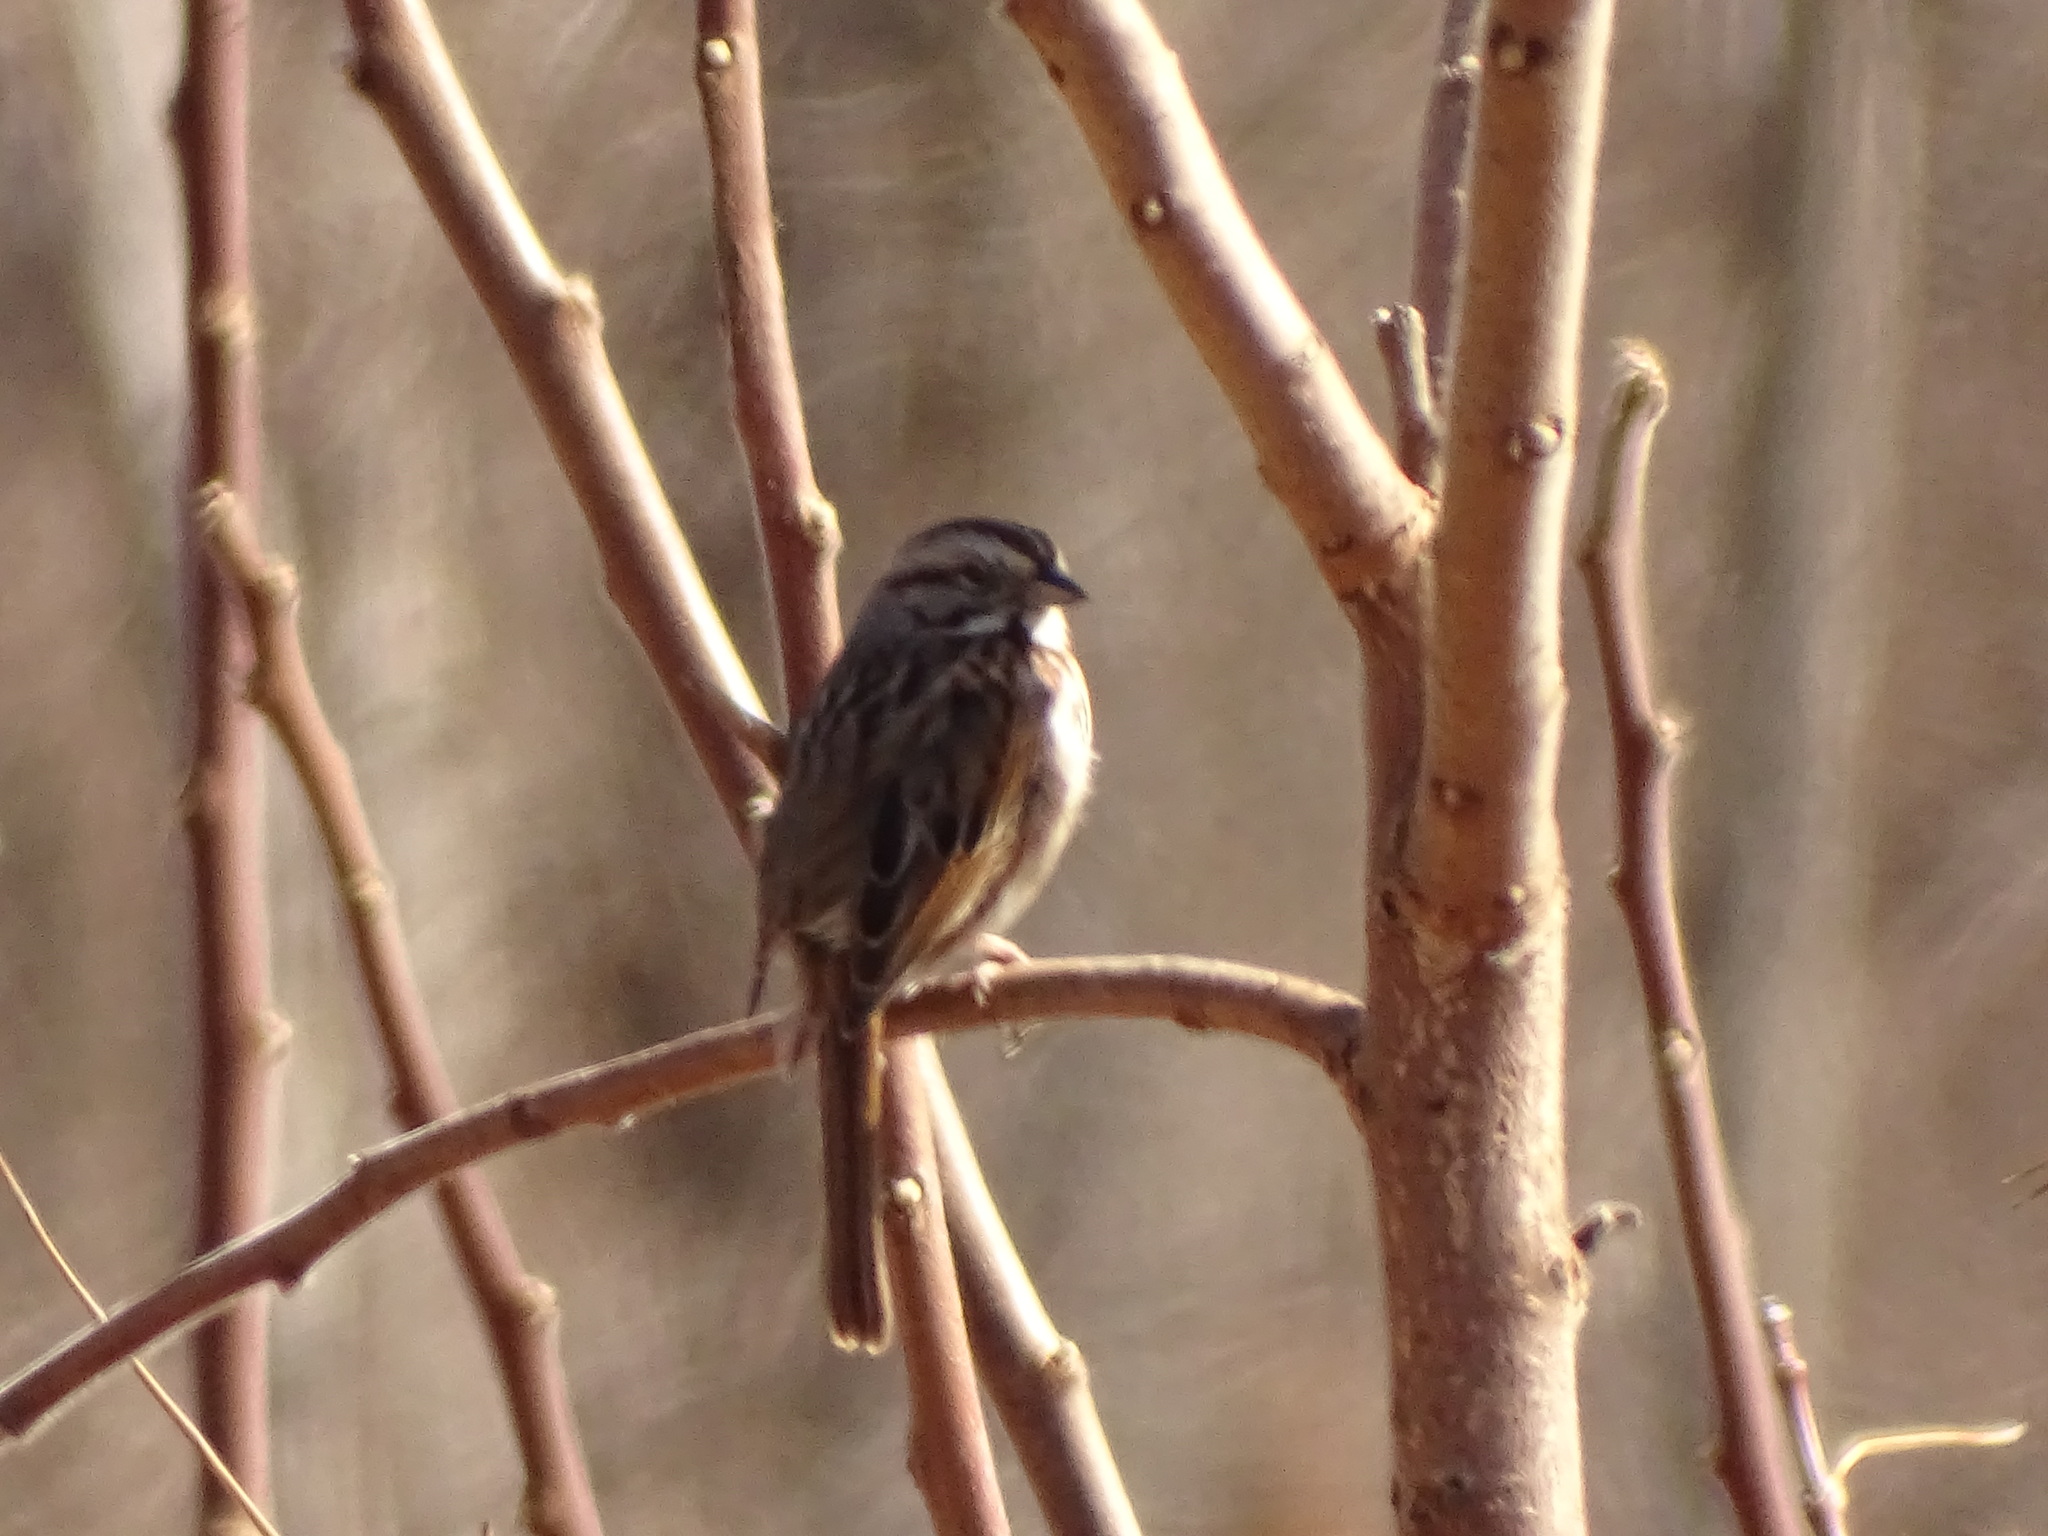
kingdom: Animalia
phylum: Chordata
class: Aves
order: Passeriformes
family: Passerellidae
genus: Melospiza
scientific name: Melospiza melodia
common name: Song sparrow
